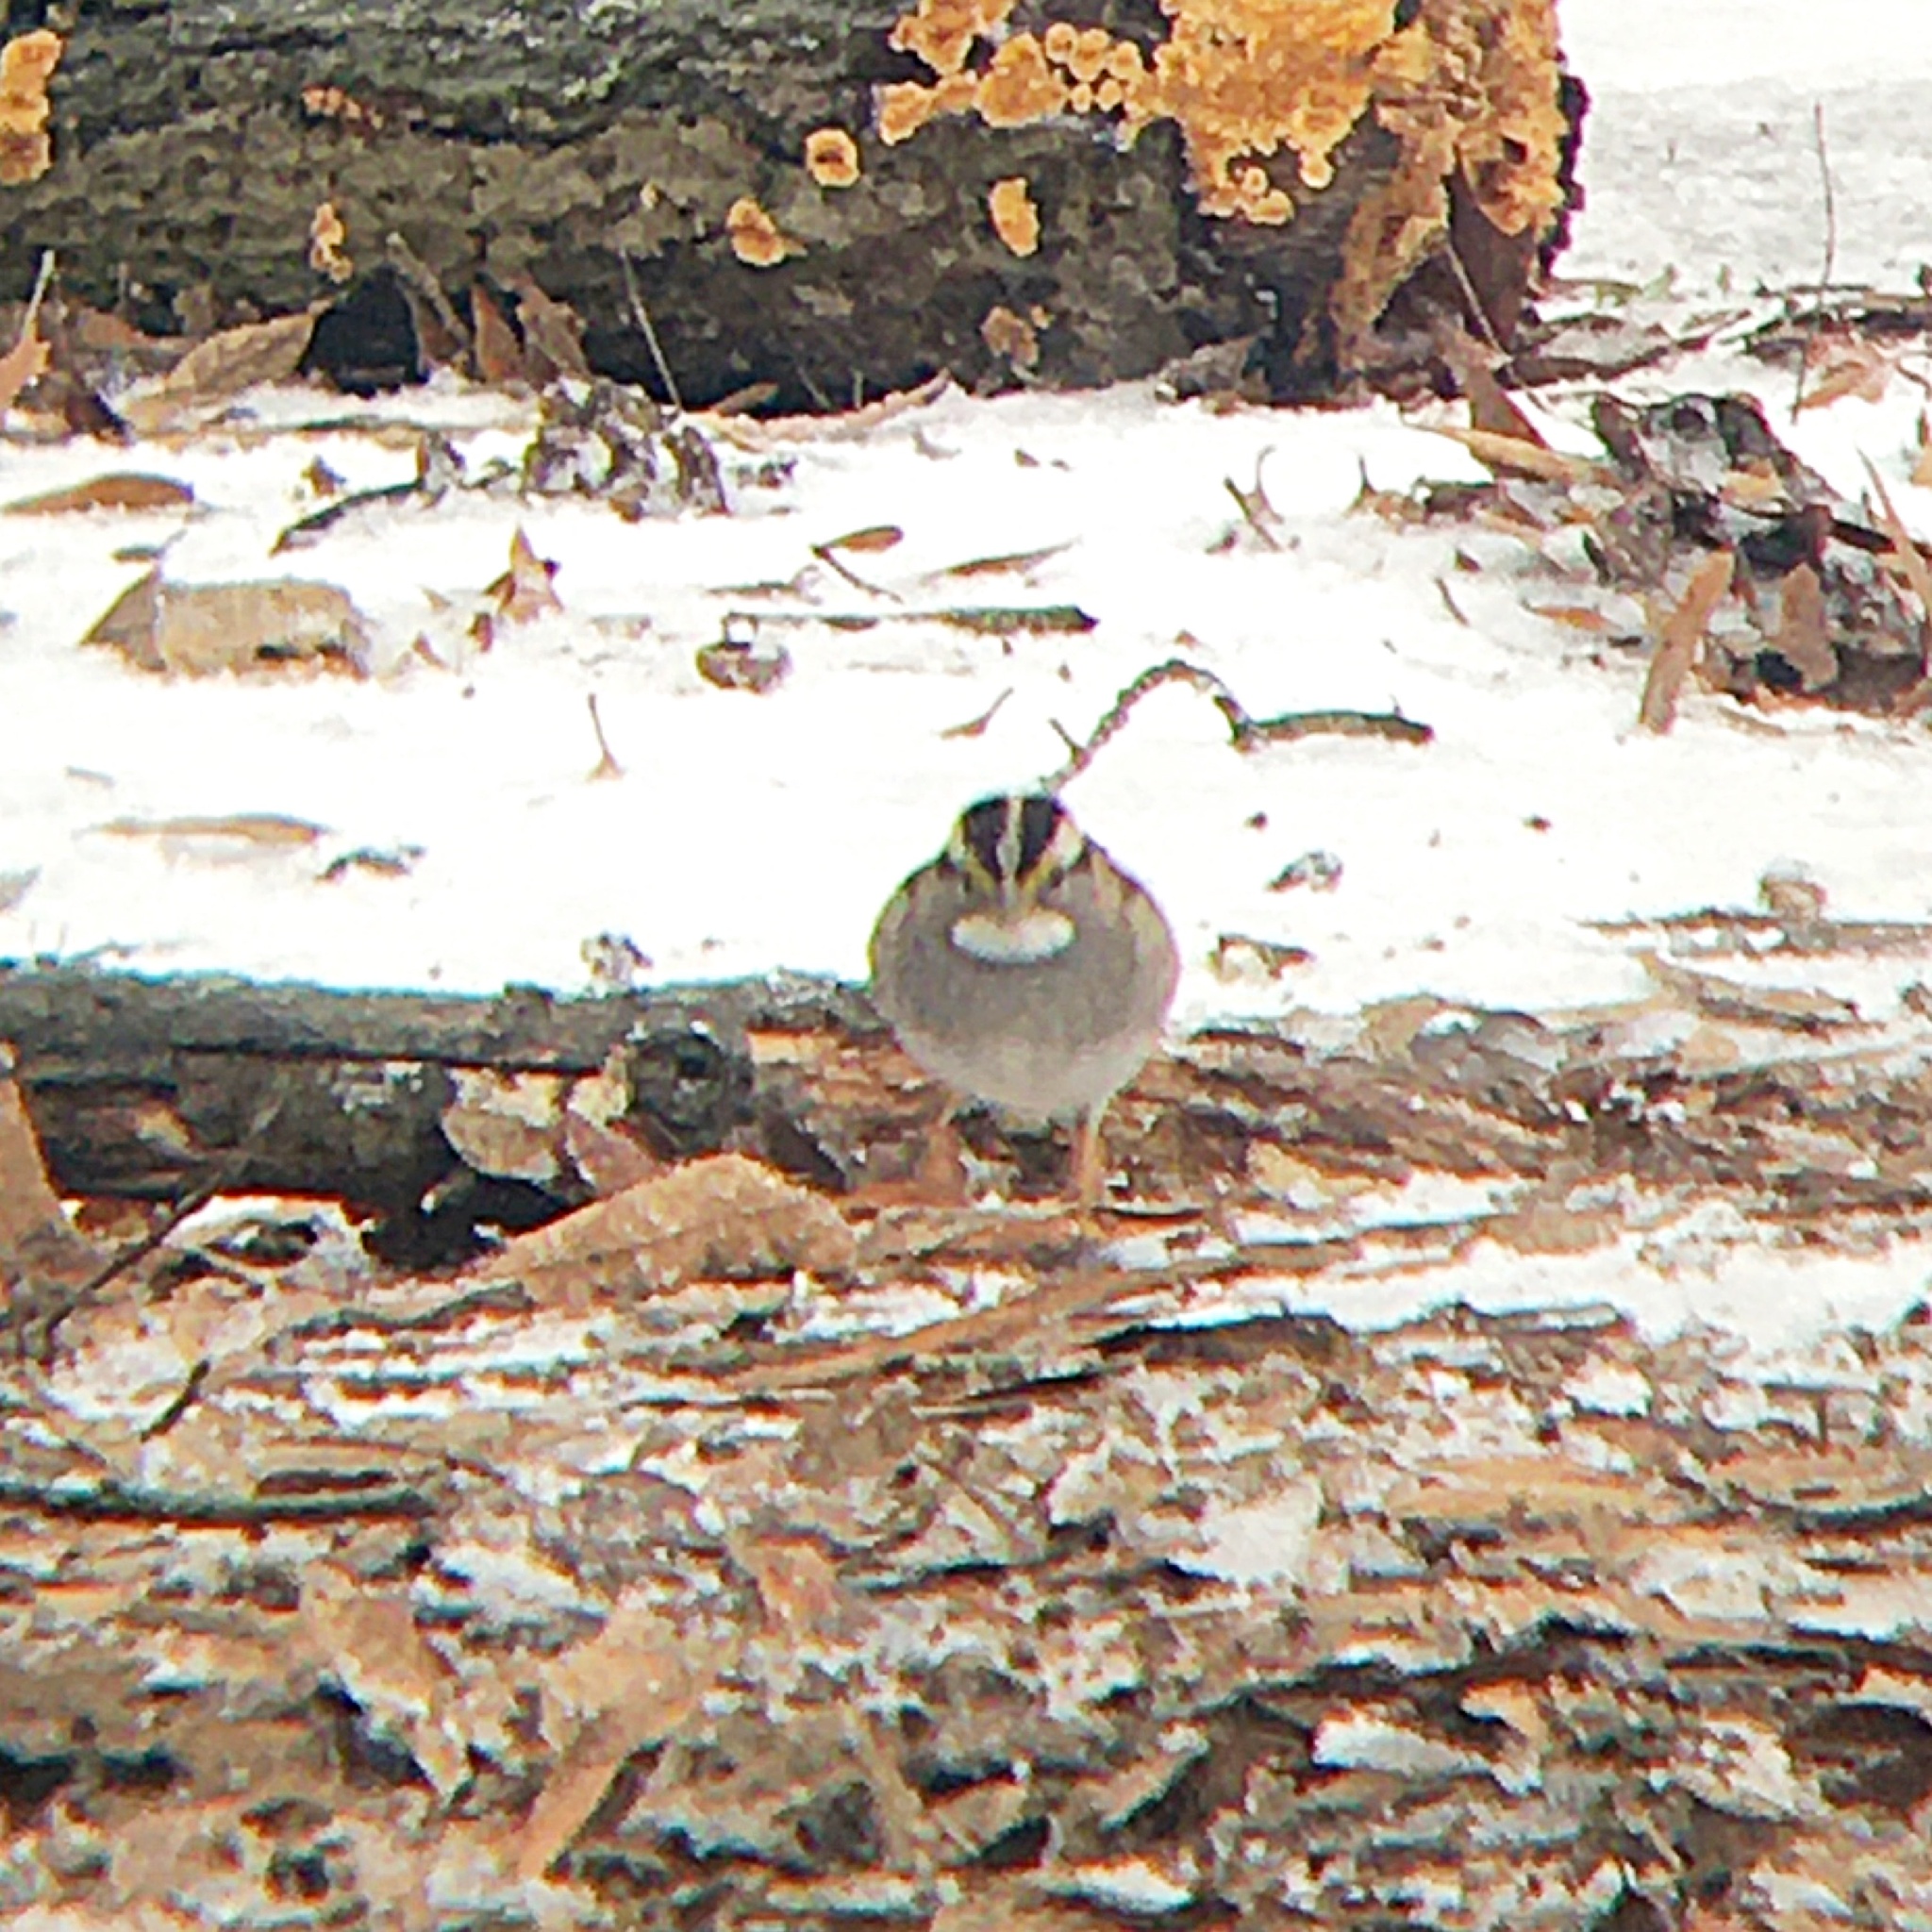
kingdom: Animalia
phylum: Chordata
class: Aves
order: Passeriformes
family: Passerellidae
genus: Zonotrichia
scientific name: Zonotrichia albicollis
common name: White-throated sparrow
